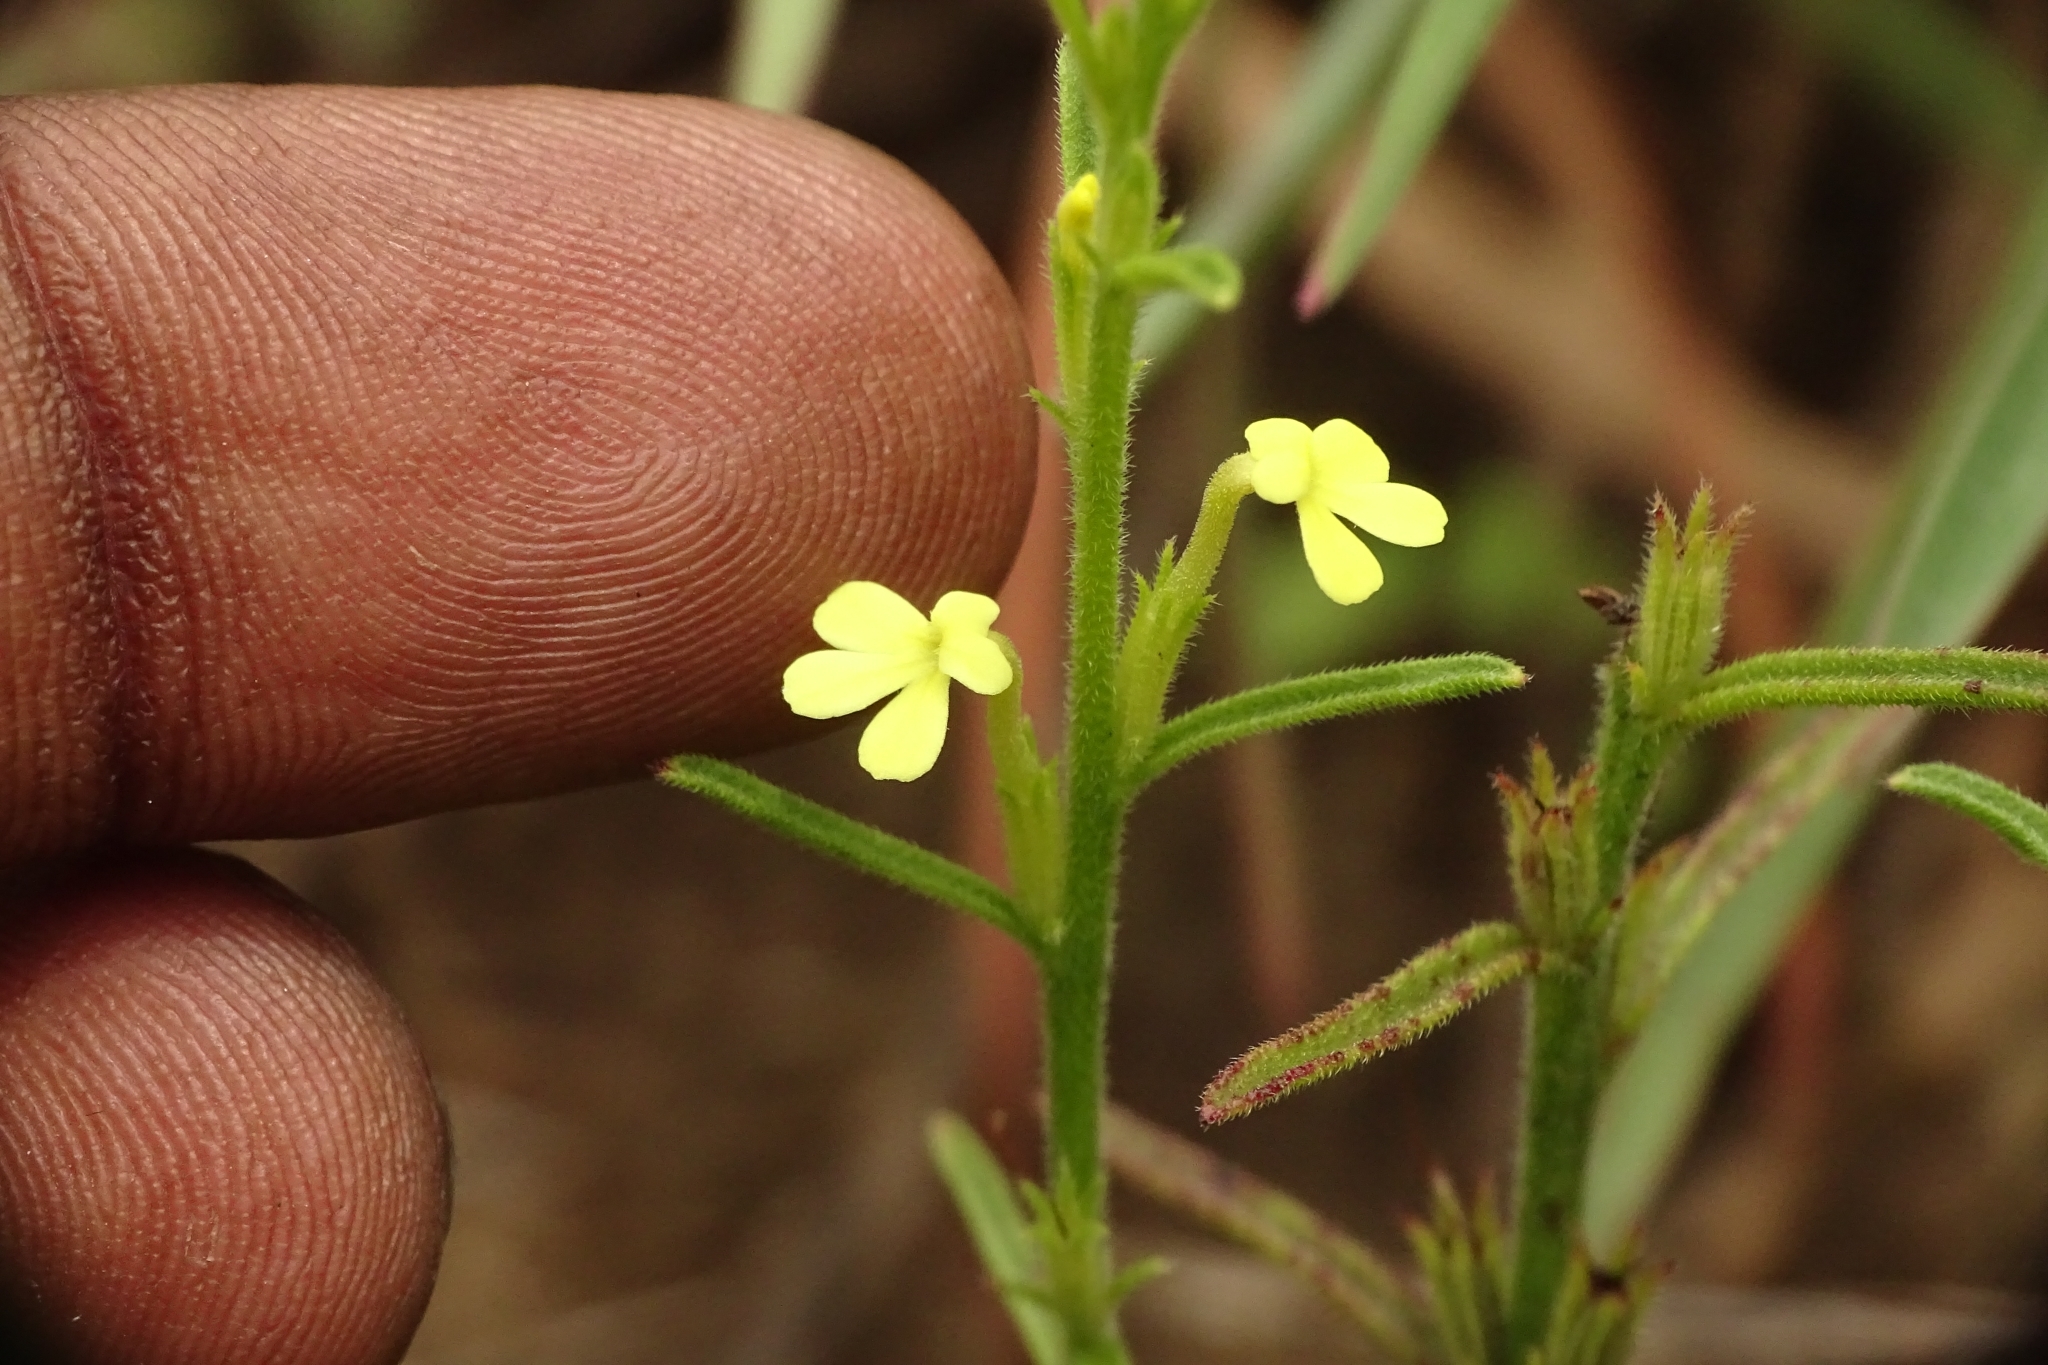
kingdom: Plantae
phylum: Tracheophyta
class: Magnoliopsida
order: Lamiales
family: Orobanchaceae
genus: Striga
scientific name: Striga asiatica
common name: Asiatic witchweed
